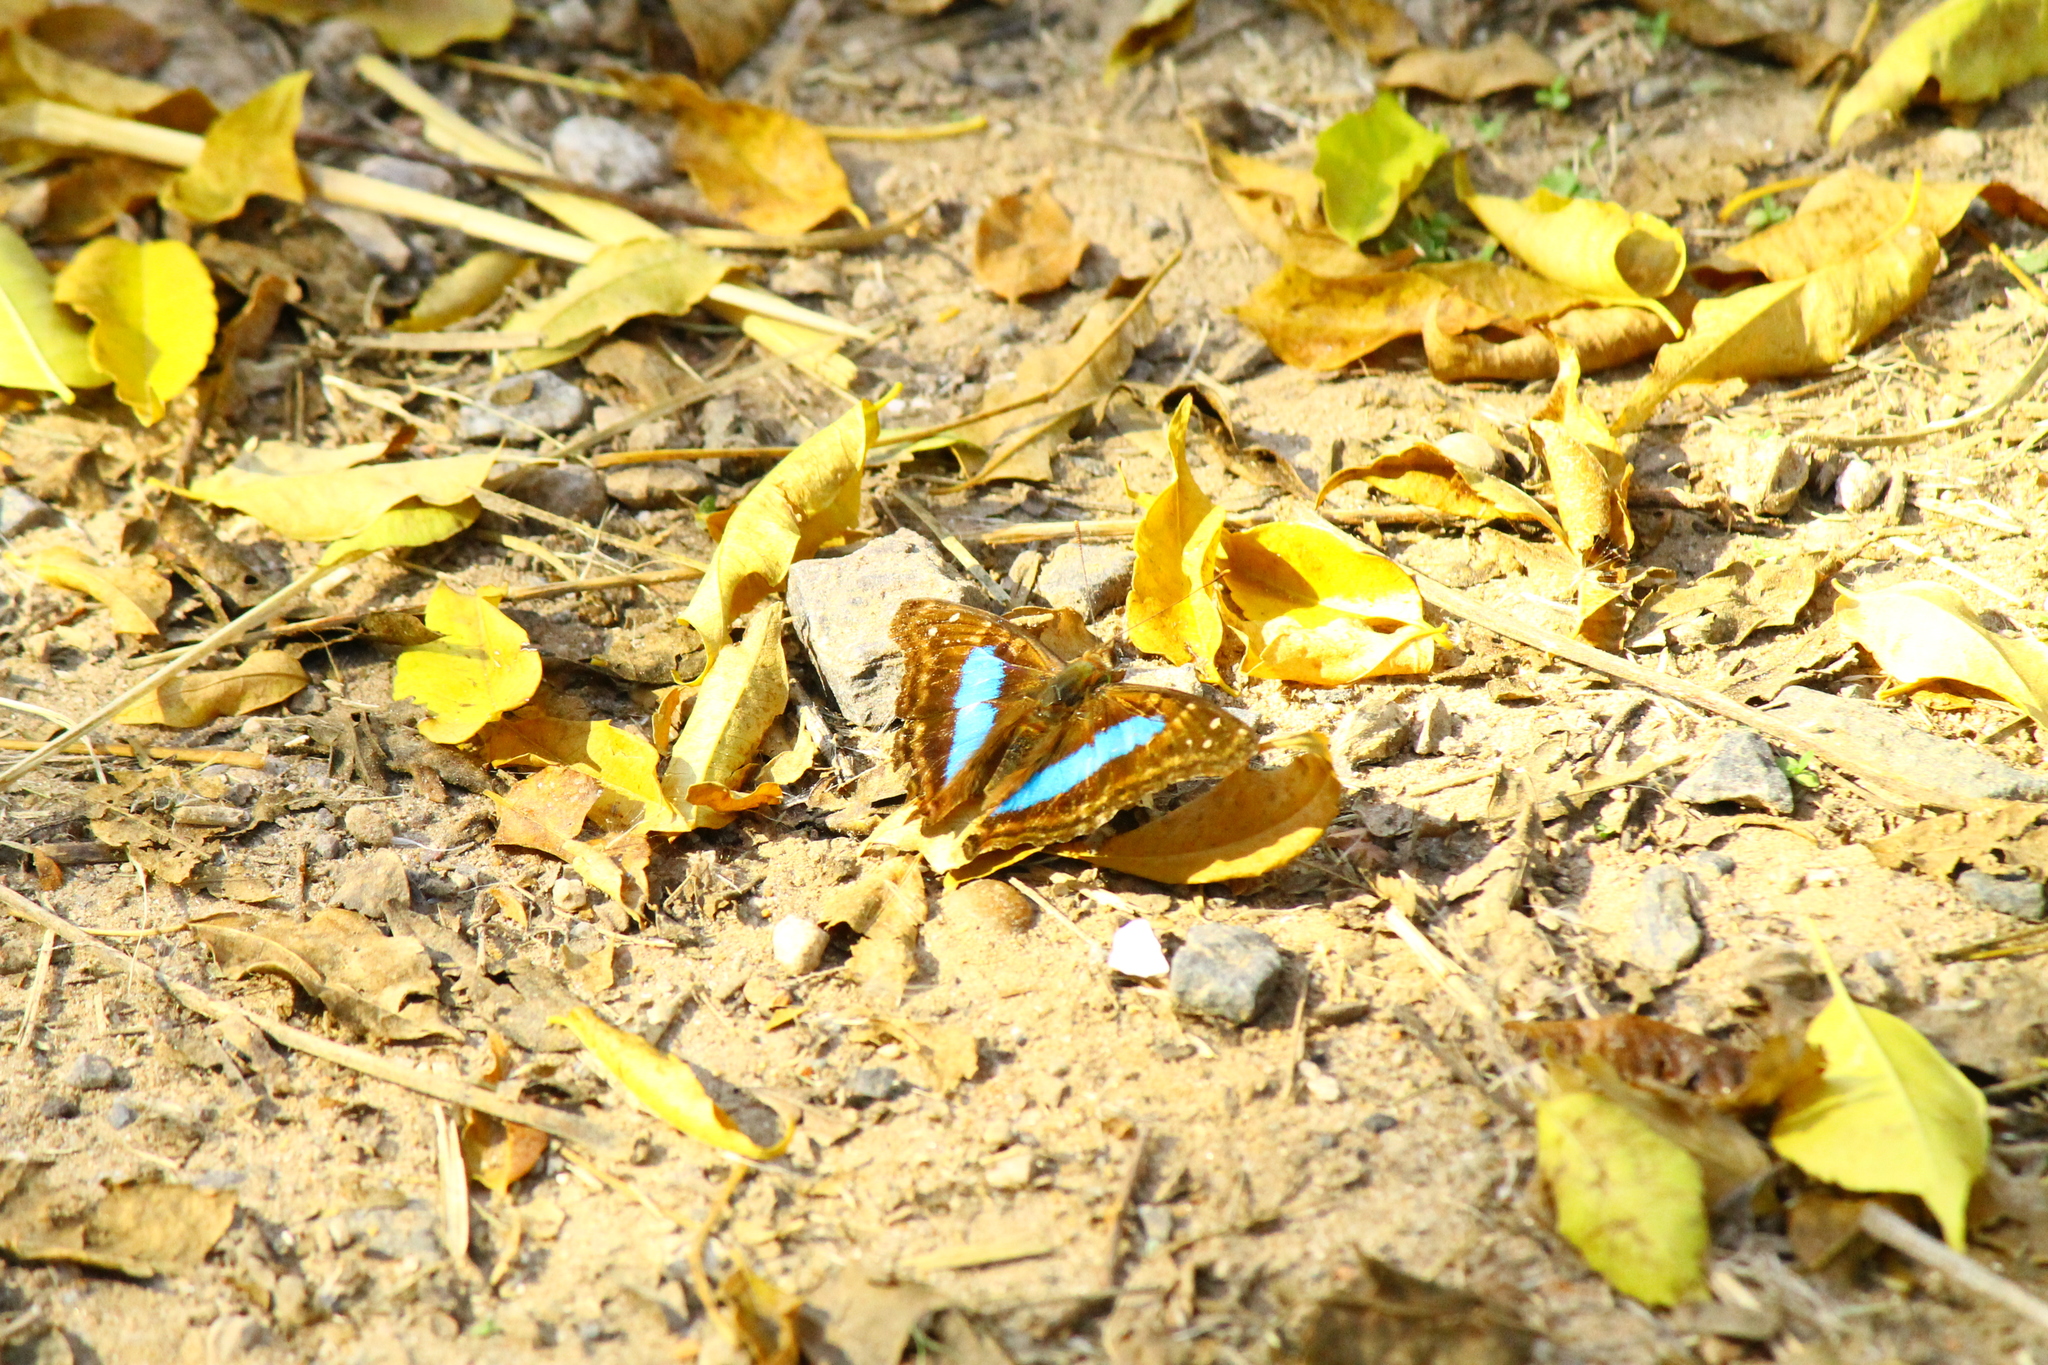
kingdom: Animalia
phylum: Arthropoda
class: Insecta
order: Lepidoptera
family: Nymphalidae
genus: Doxocopa
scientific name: Doxocopa laurentia
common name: Turquoise emperor
